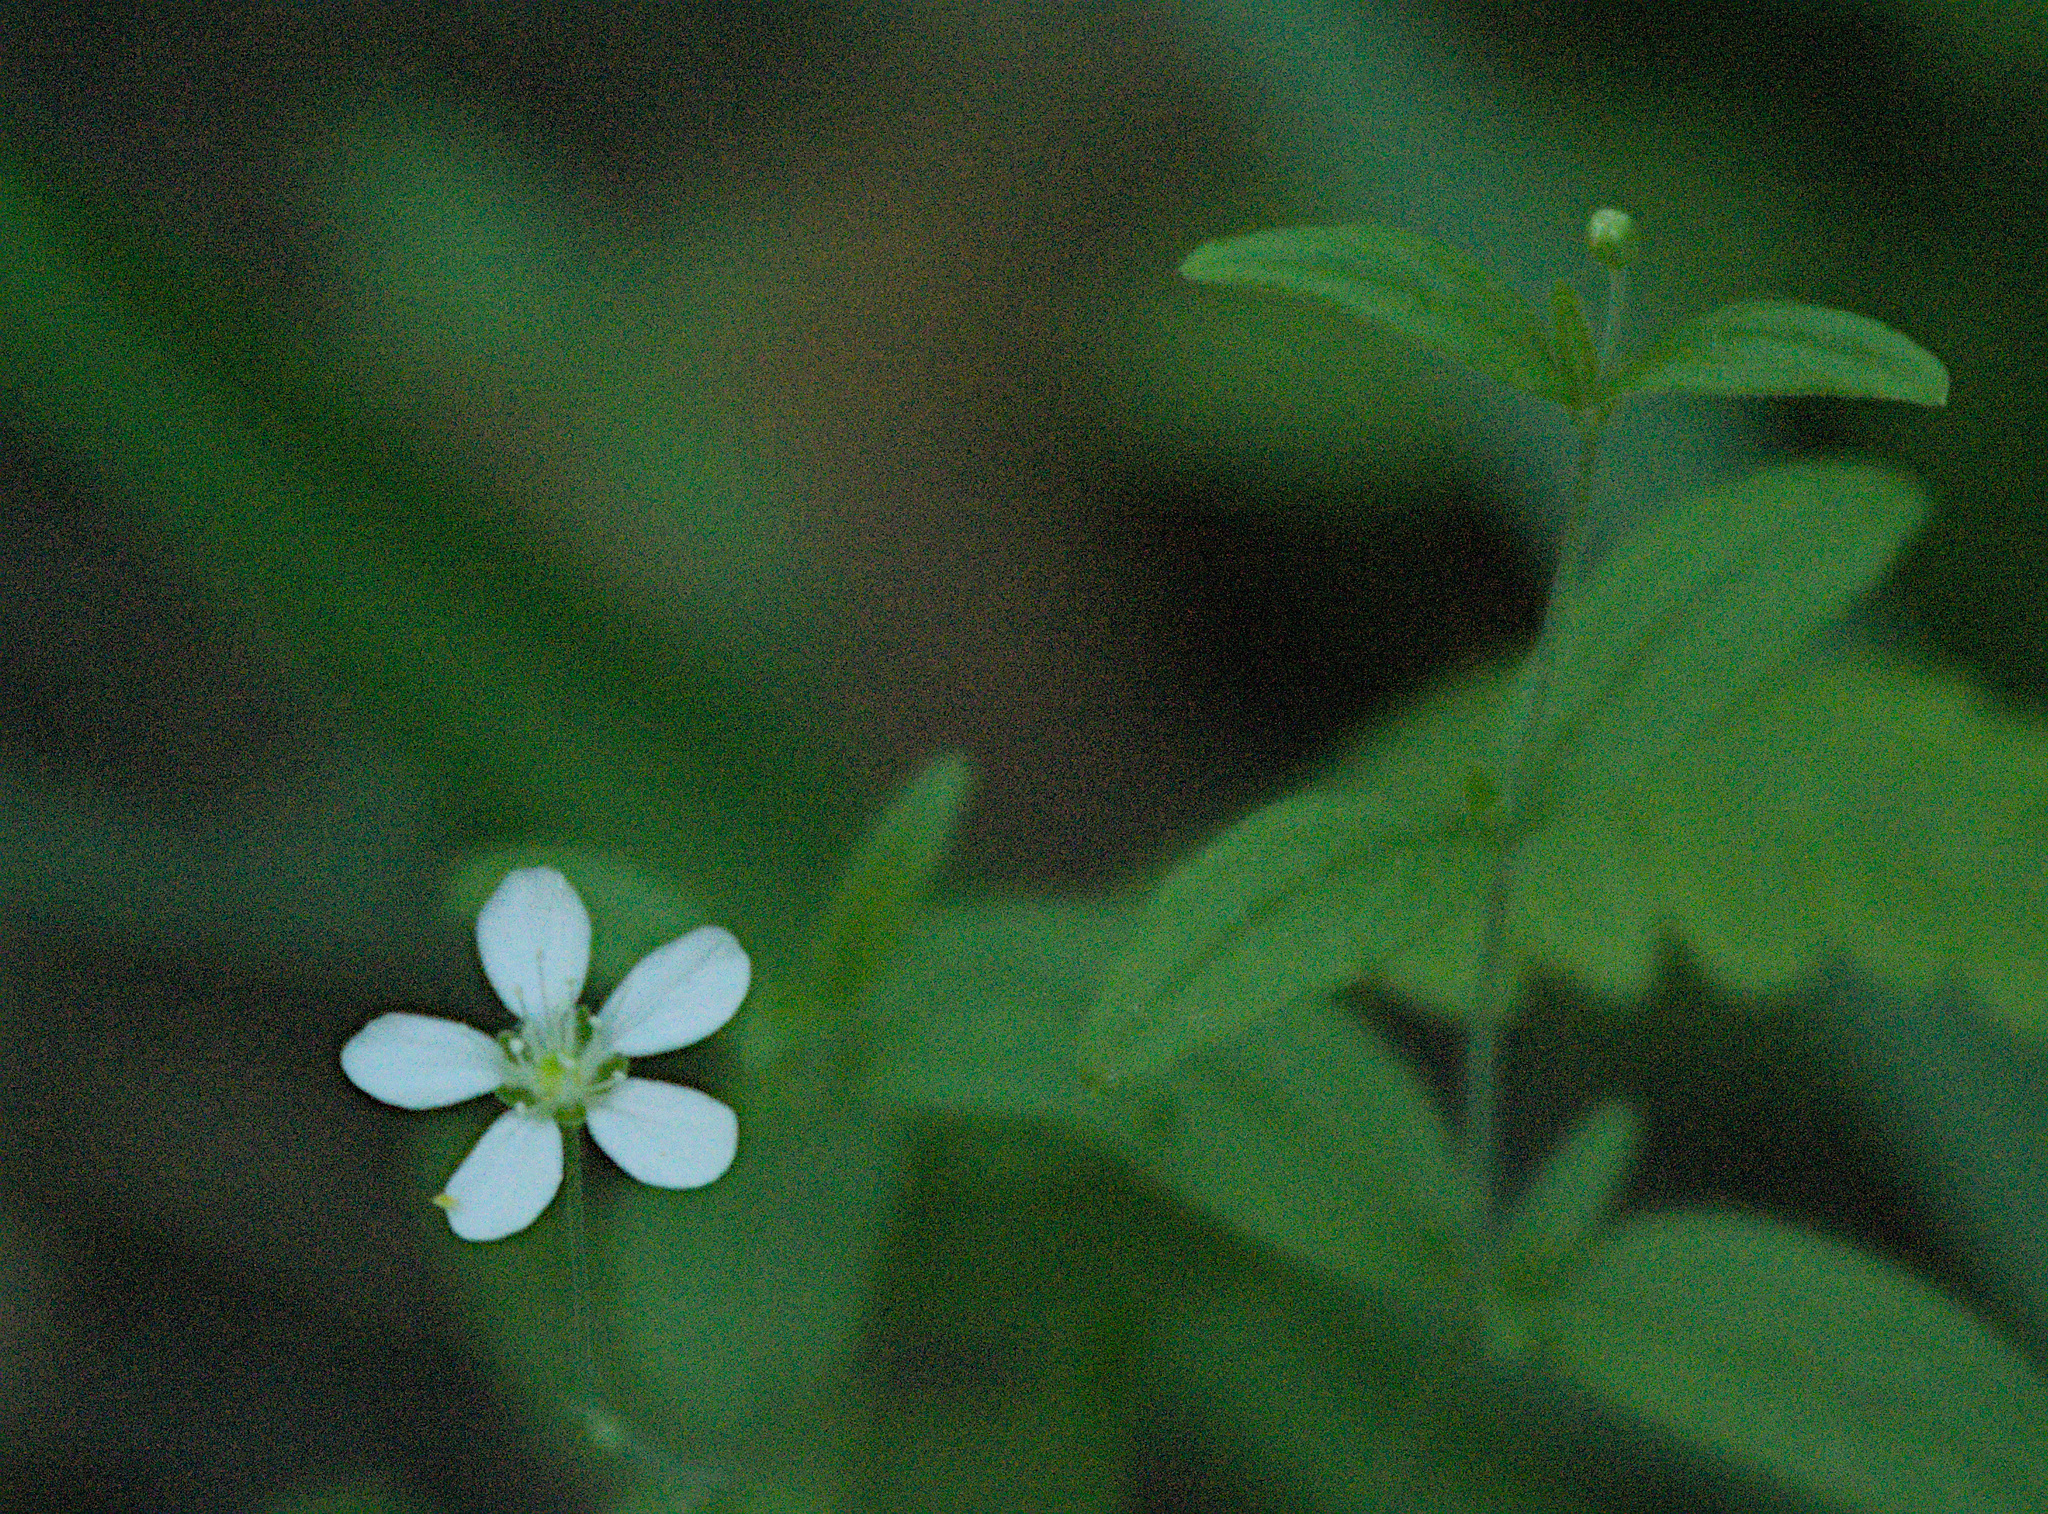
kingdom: Plantae
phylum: Tracheophyta
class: Magnoliopsida
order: Caryophyllales
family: Caryophyllaceae
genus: Moehringia
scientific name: Moehringia lateriflora
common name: Blunt-leaved sandwort
